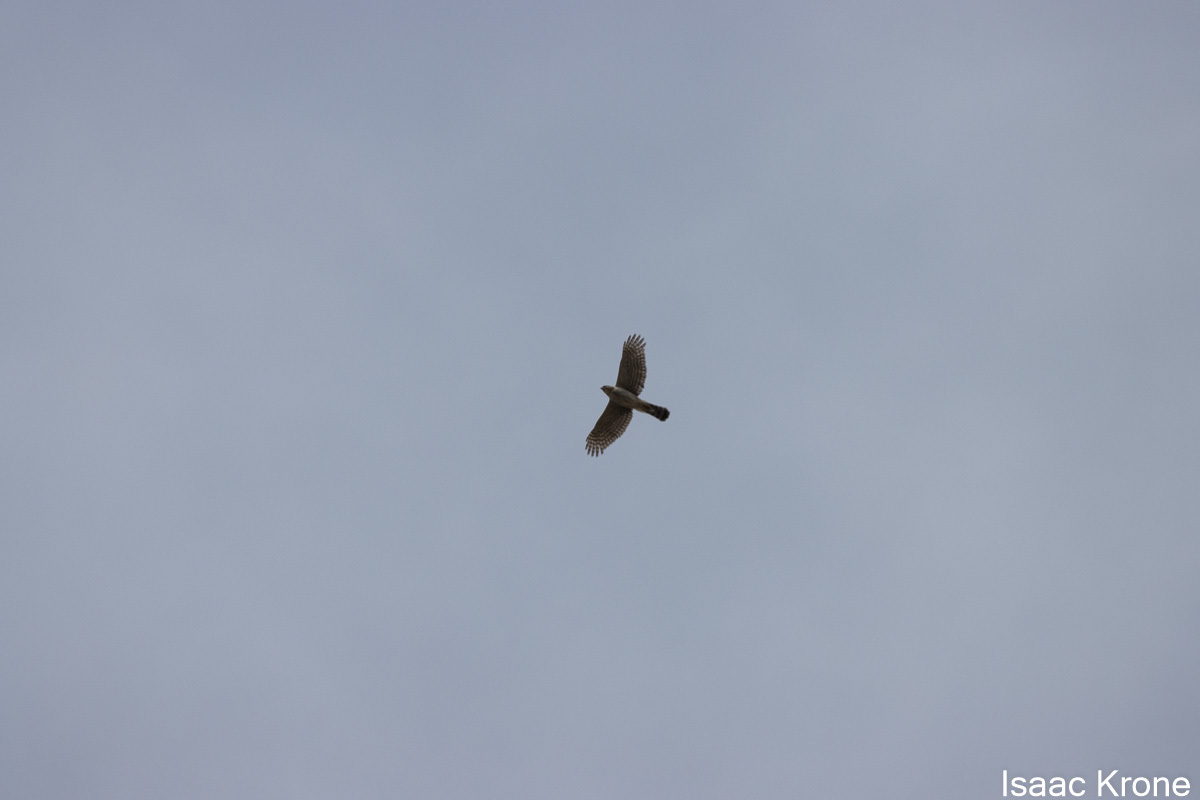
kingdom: Animalia
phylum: Chordata
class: Aves
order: Accipitriformes
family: Accipitridae
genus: Accipiter
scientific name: Accipiter cooperii
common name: Cooper's hawk
